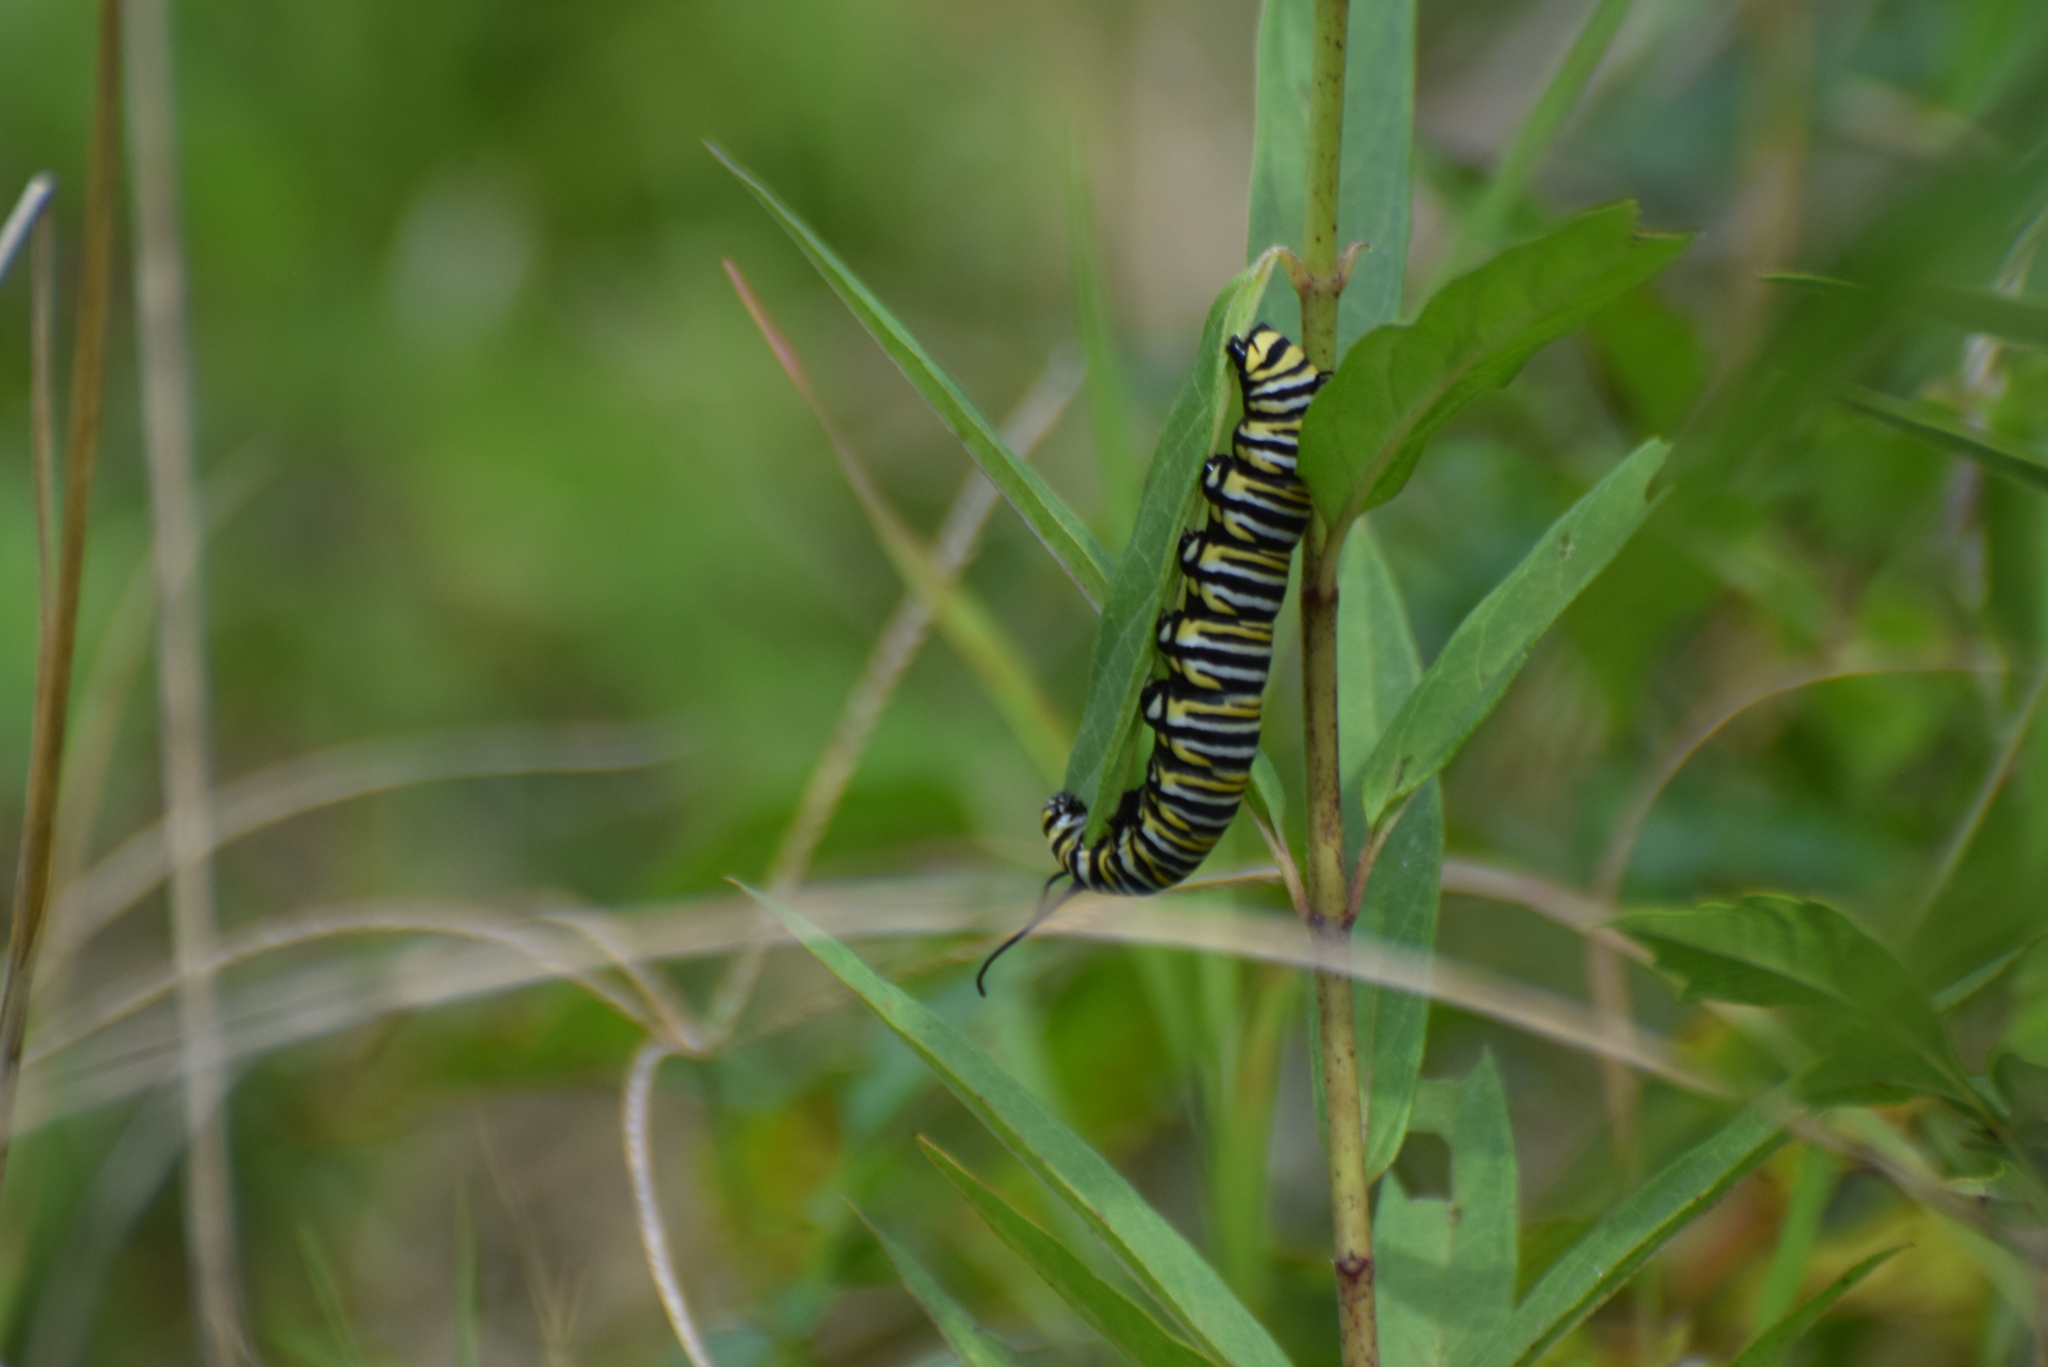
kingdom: Animalia
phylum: Arthropoda
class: Insecta
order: Lepidoptera
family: Nymphalidae
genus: Danaus
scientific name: Danaus plexippus
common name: Monarch
